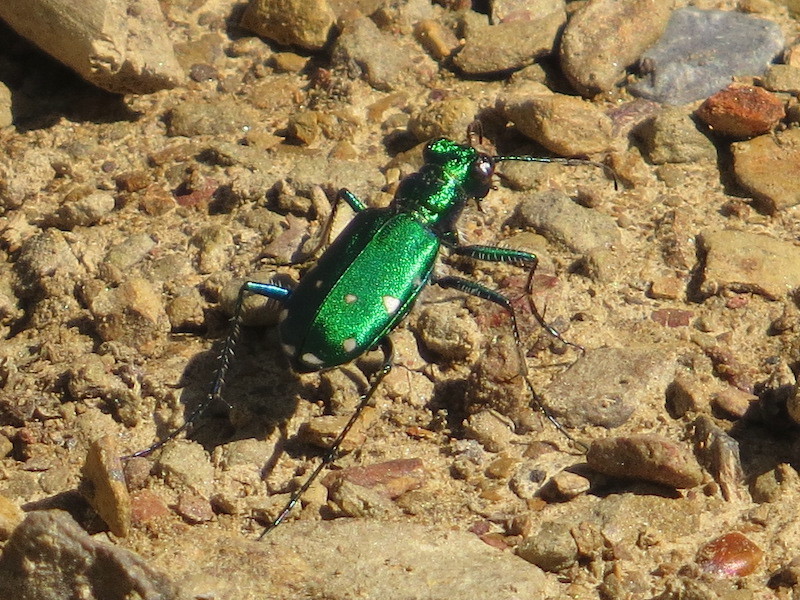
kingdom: Animalia
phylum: Arthropoda
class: Insecta
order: Coleoptera
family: Carabidae
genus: Cicindela
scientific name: Cicindela sexguttata
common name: Six-spotted tiger beetle
